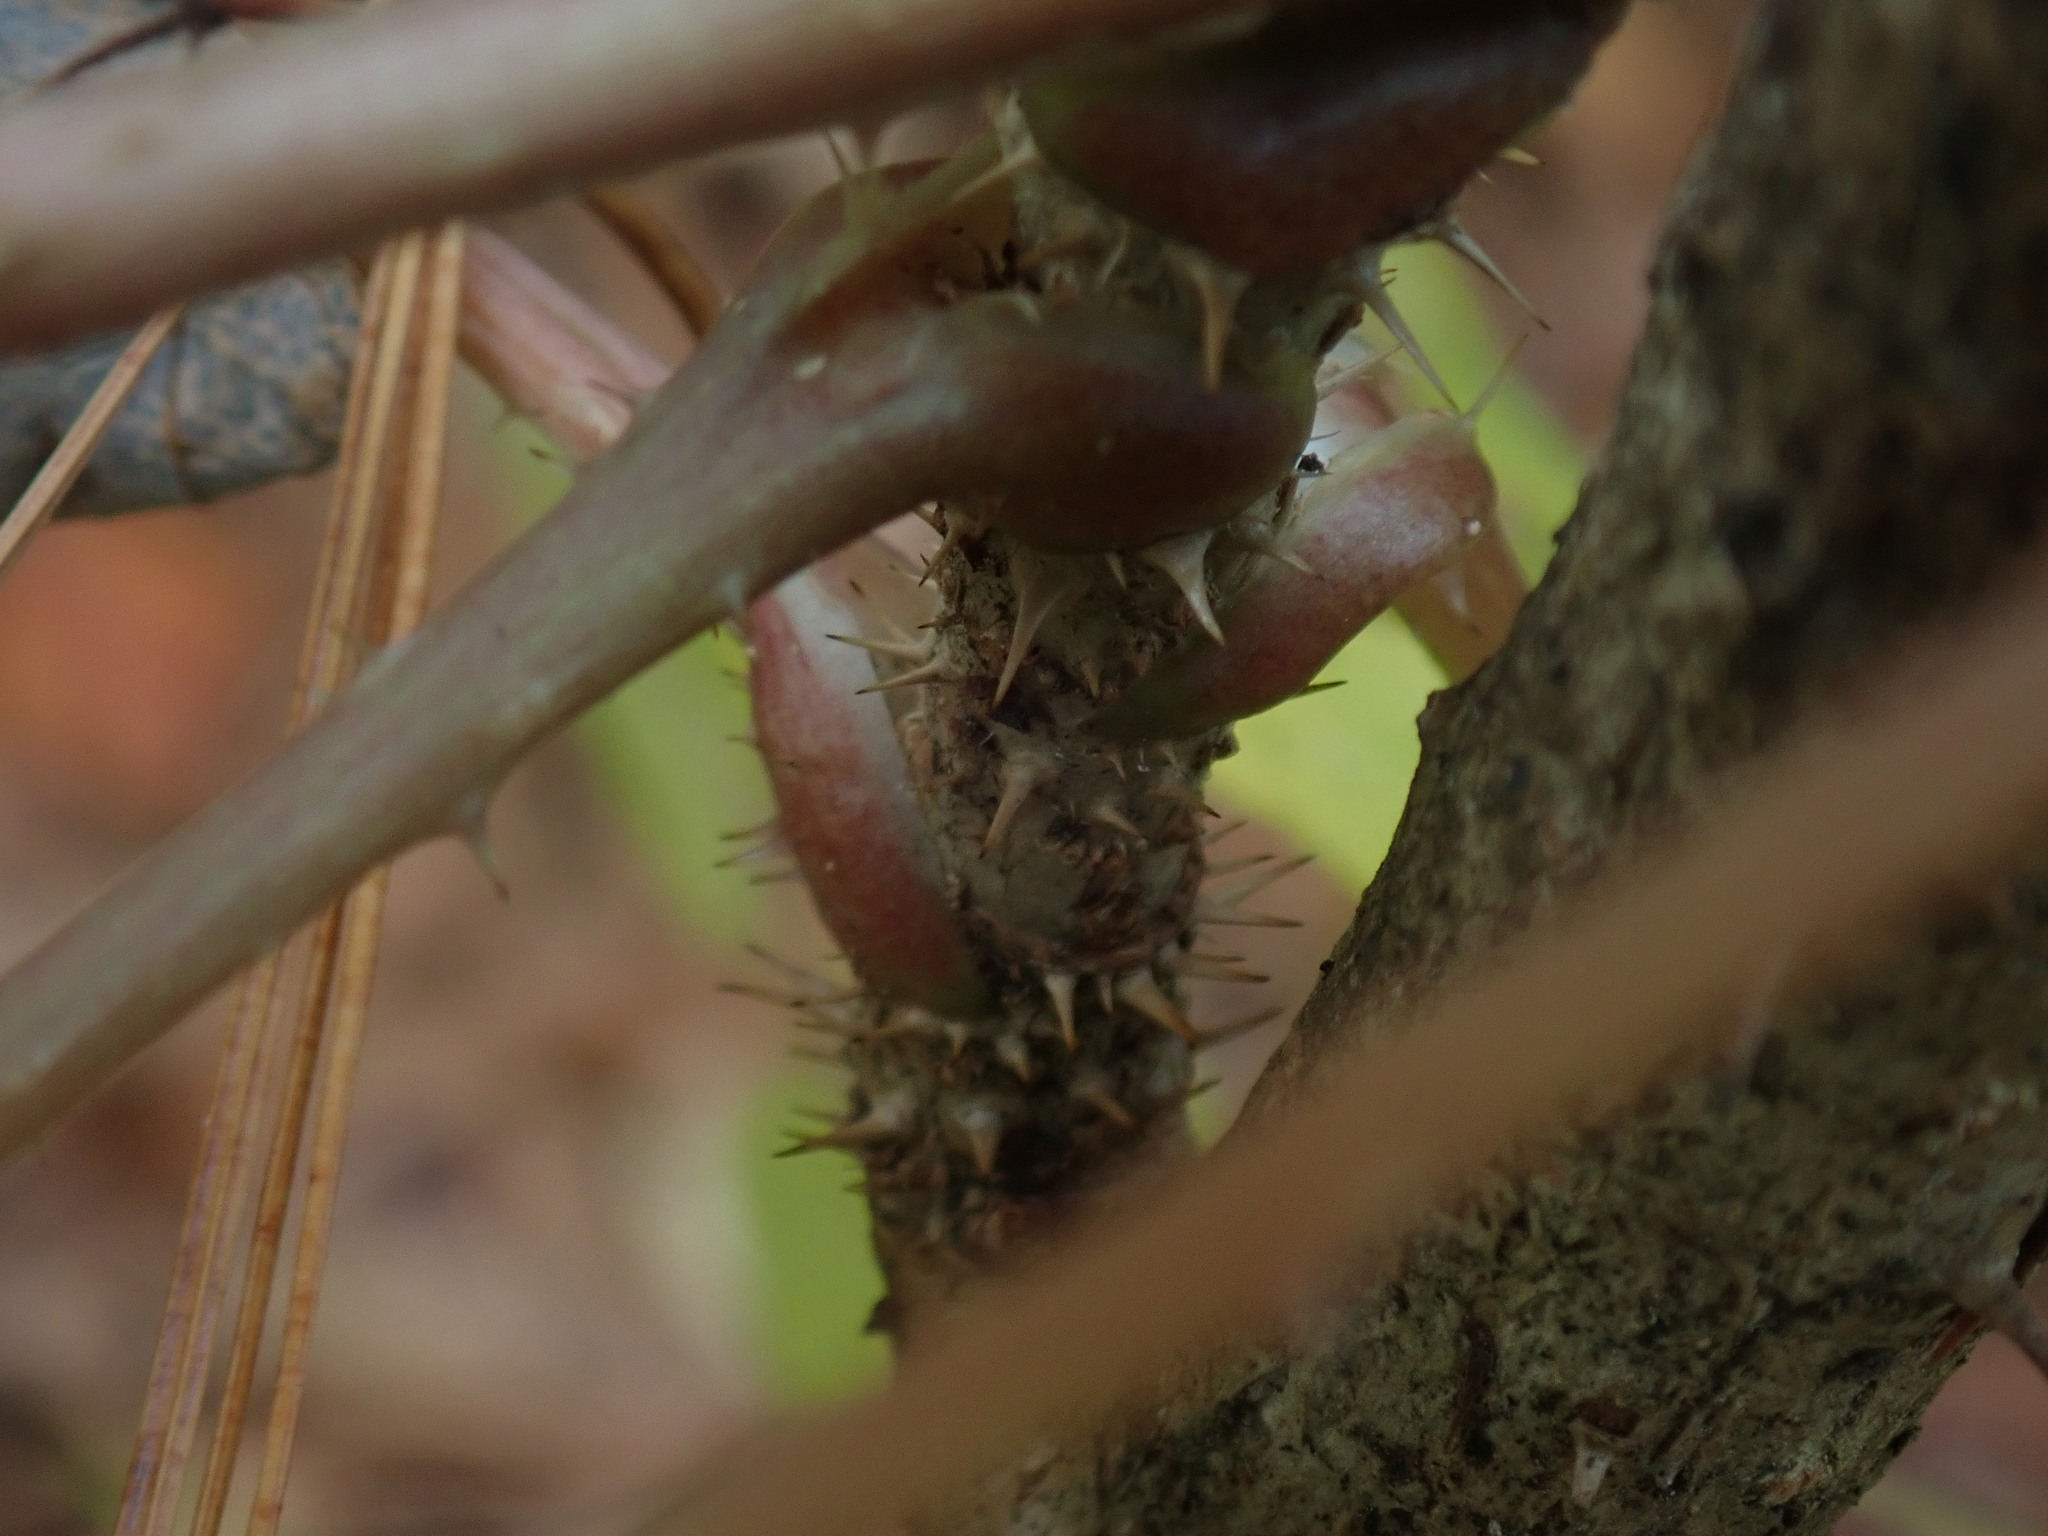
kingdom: Plantae
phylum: Tracheophyta
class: Magnoliopsida
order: Apiales
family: Araliaceae
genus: Aralia
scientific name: Aralia elata
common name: Japanese angelica-tree
